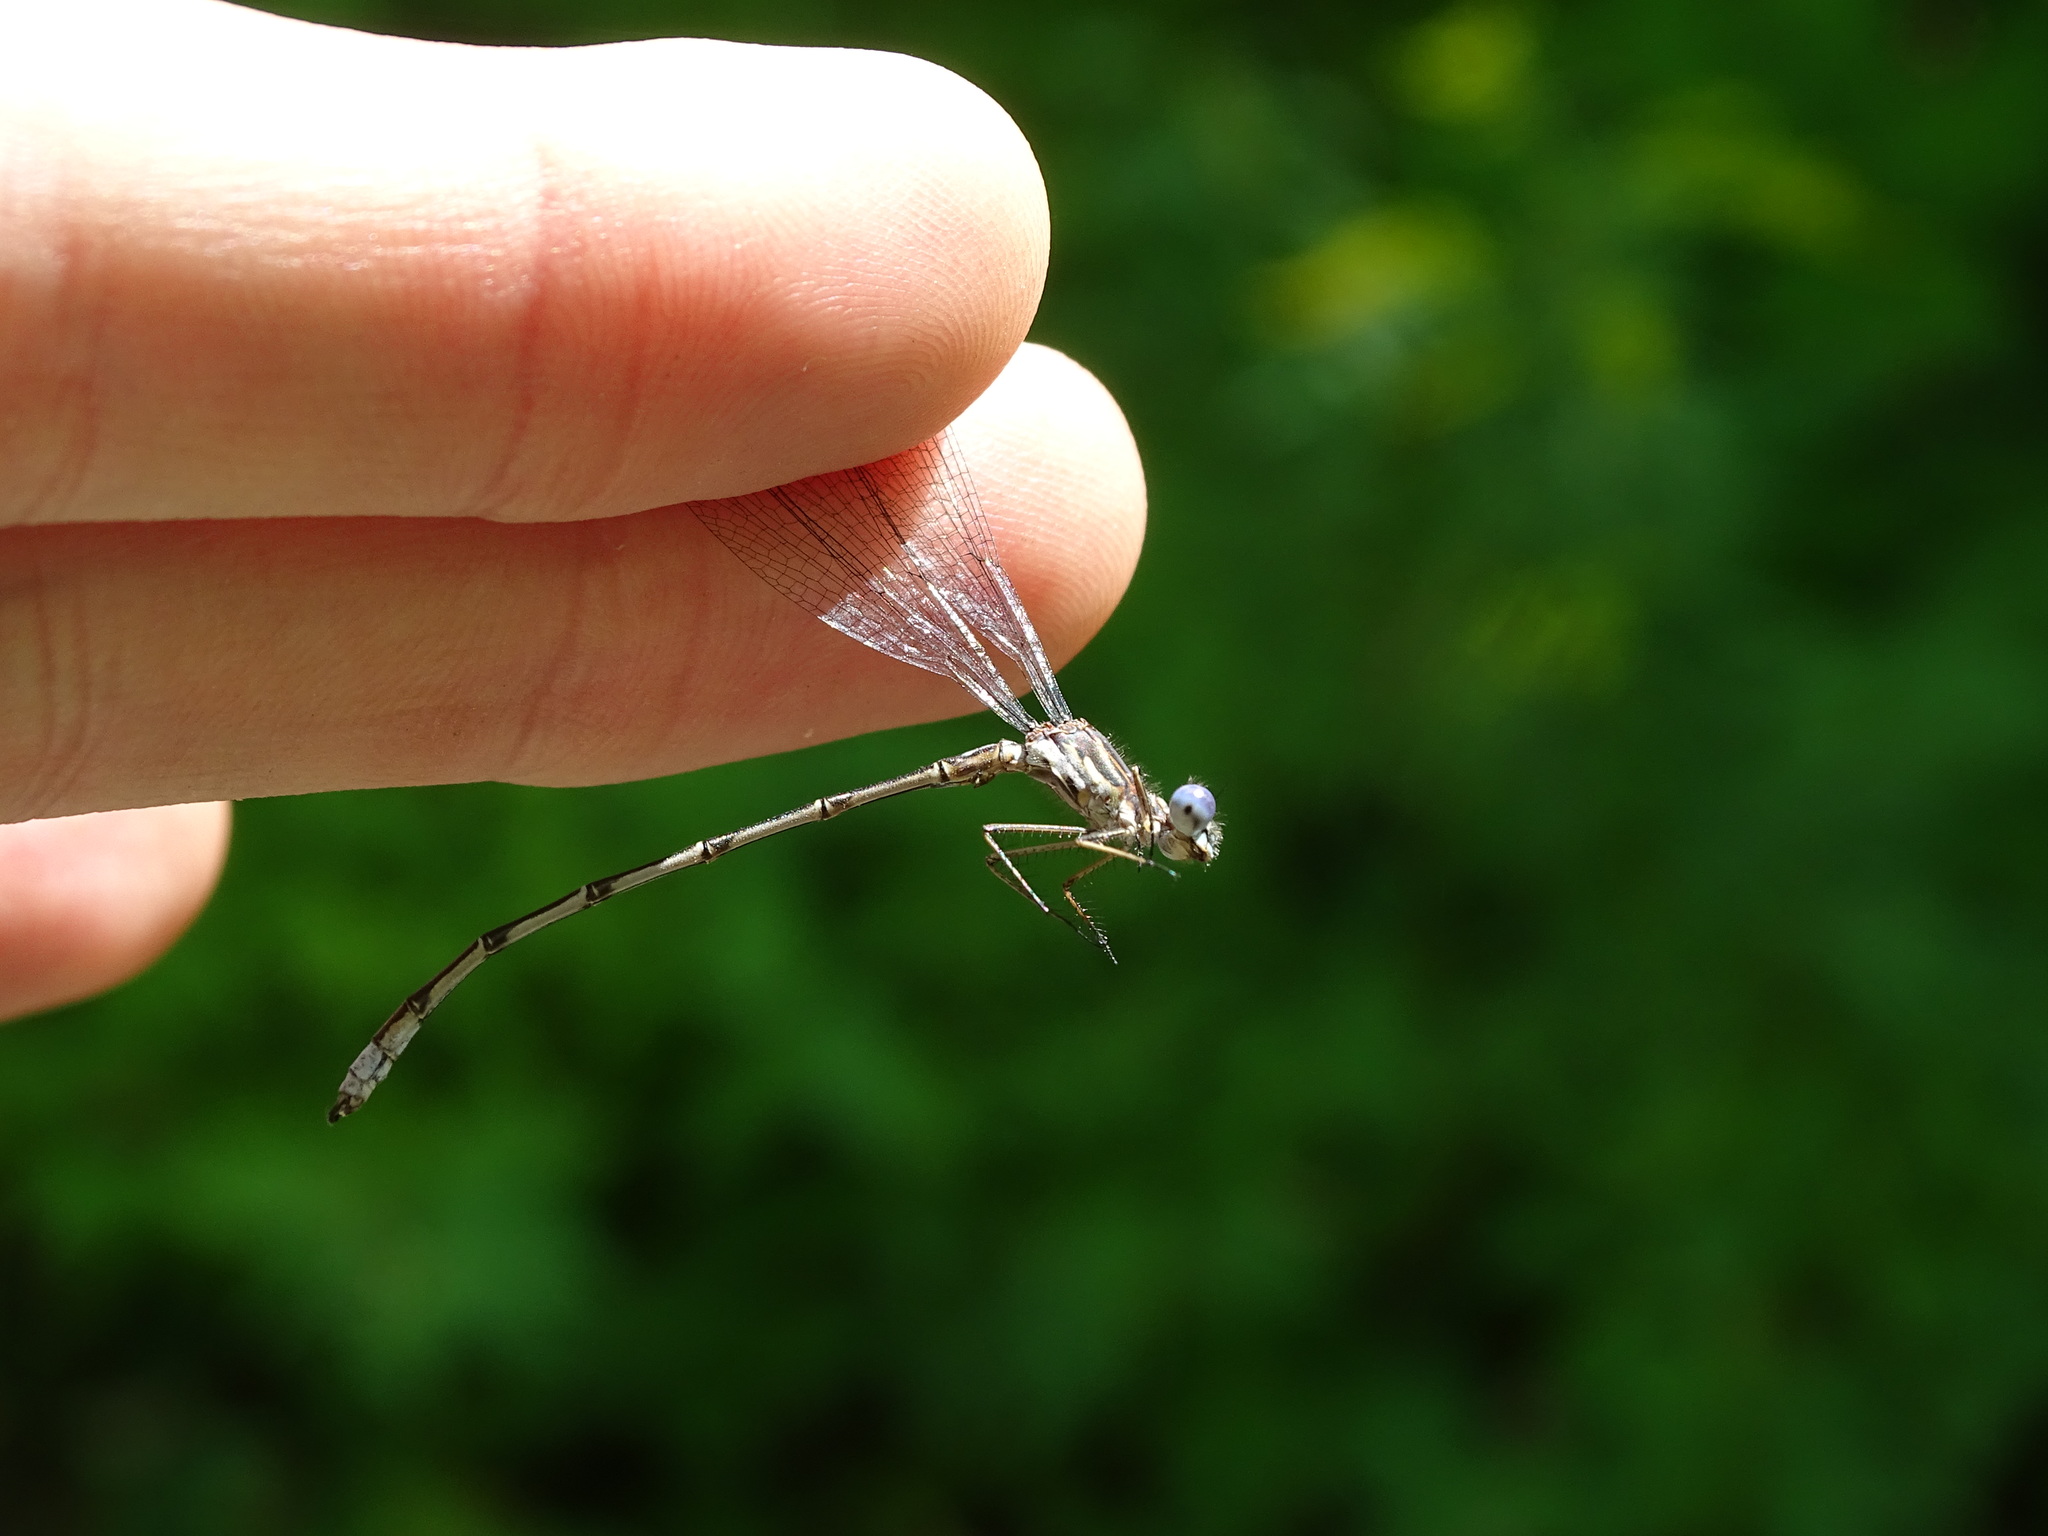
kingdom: Animalia
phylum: Arthropoda
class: Insecta
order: Odonata
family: Lestidae
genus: Lestes
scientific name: Lestes congener
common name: Spotted spreadwing
